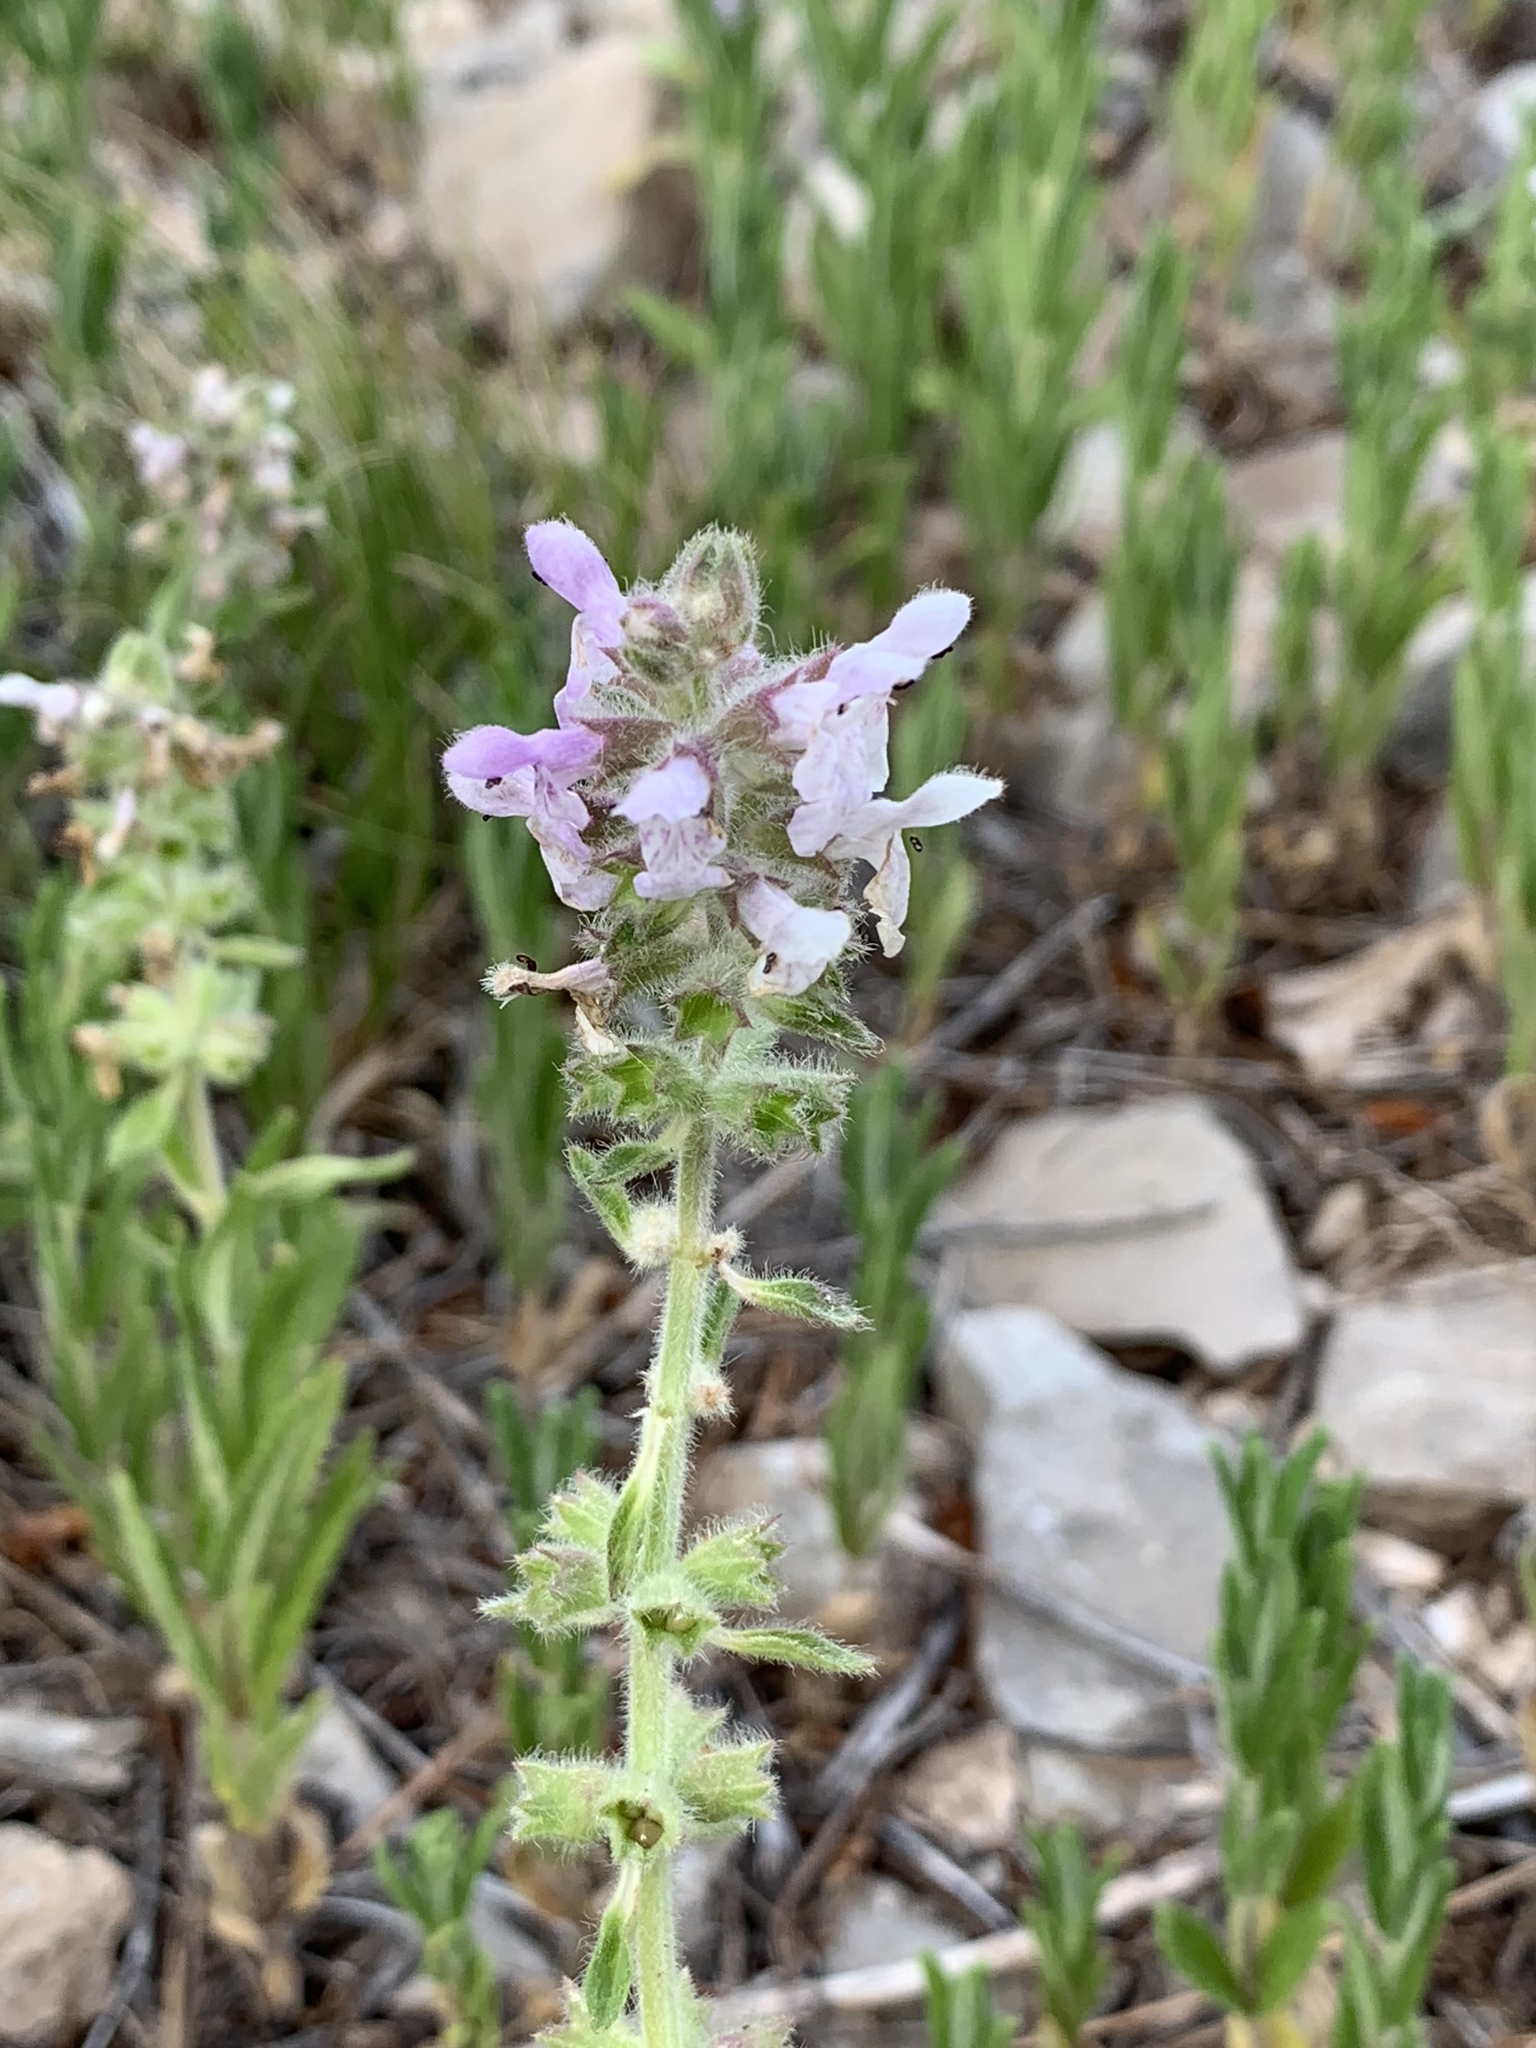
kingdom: Plantae
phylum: Tracheophyta
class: Magnoliopsida
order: Lamiales
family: Lamiaceae
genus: Stachys
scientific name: Stachys pilosa
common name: Hairy hedge-nettle
